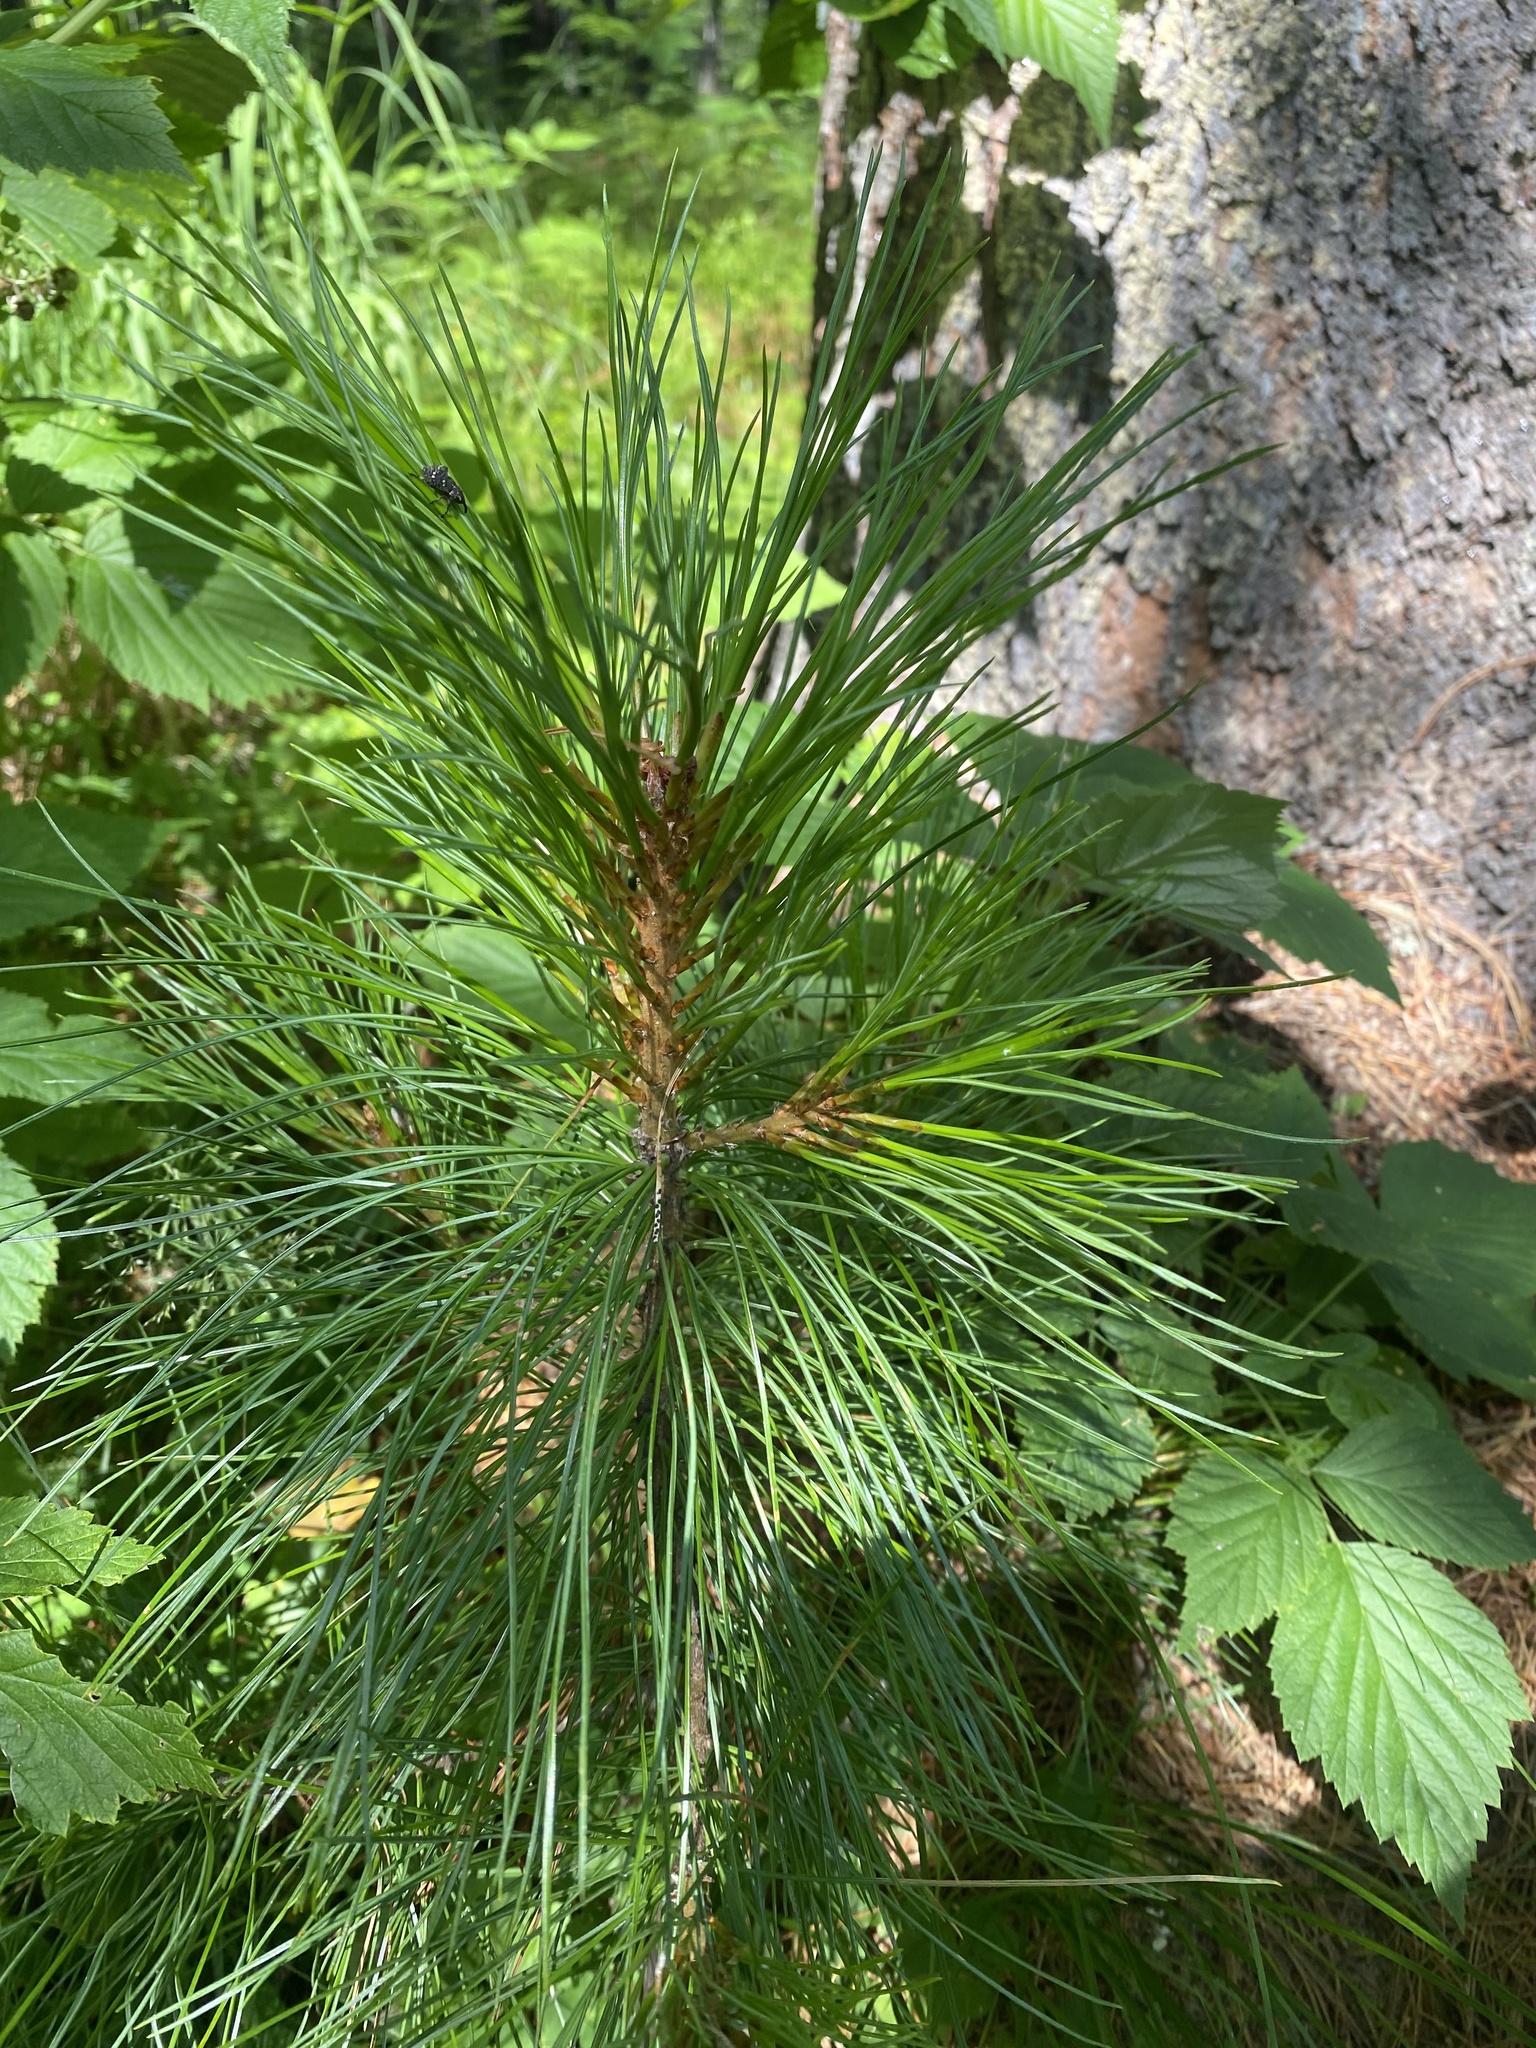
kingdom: Plantae
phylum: Tracheophyta
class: Pinopsida
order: Pinales
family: Pinaceae
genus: Pinus
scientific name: Pinus sibirica
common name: Siberian pine
